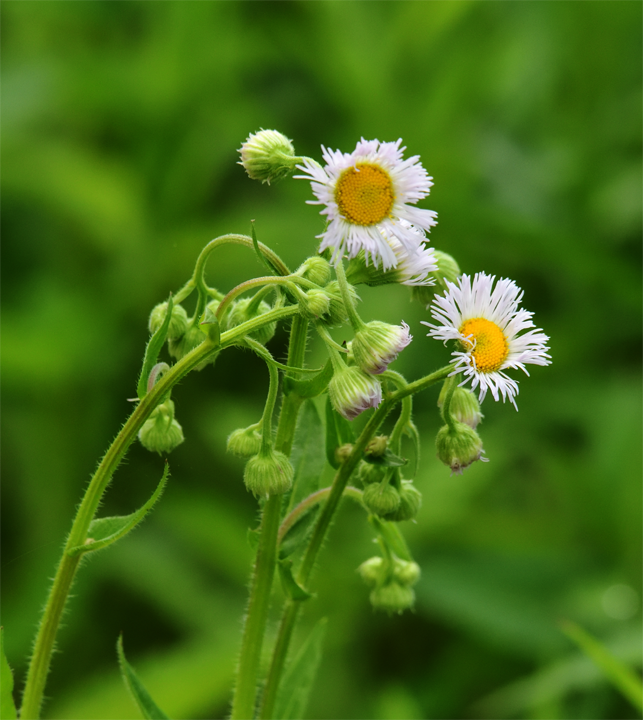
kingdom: Plantae
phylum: Tracheophyta
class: Magnoliopsida
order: Asterales
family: Asteraceae
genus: Erigeron
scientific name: Erigeron philadelphicus
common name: Robin's-plantain
